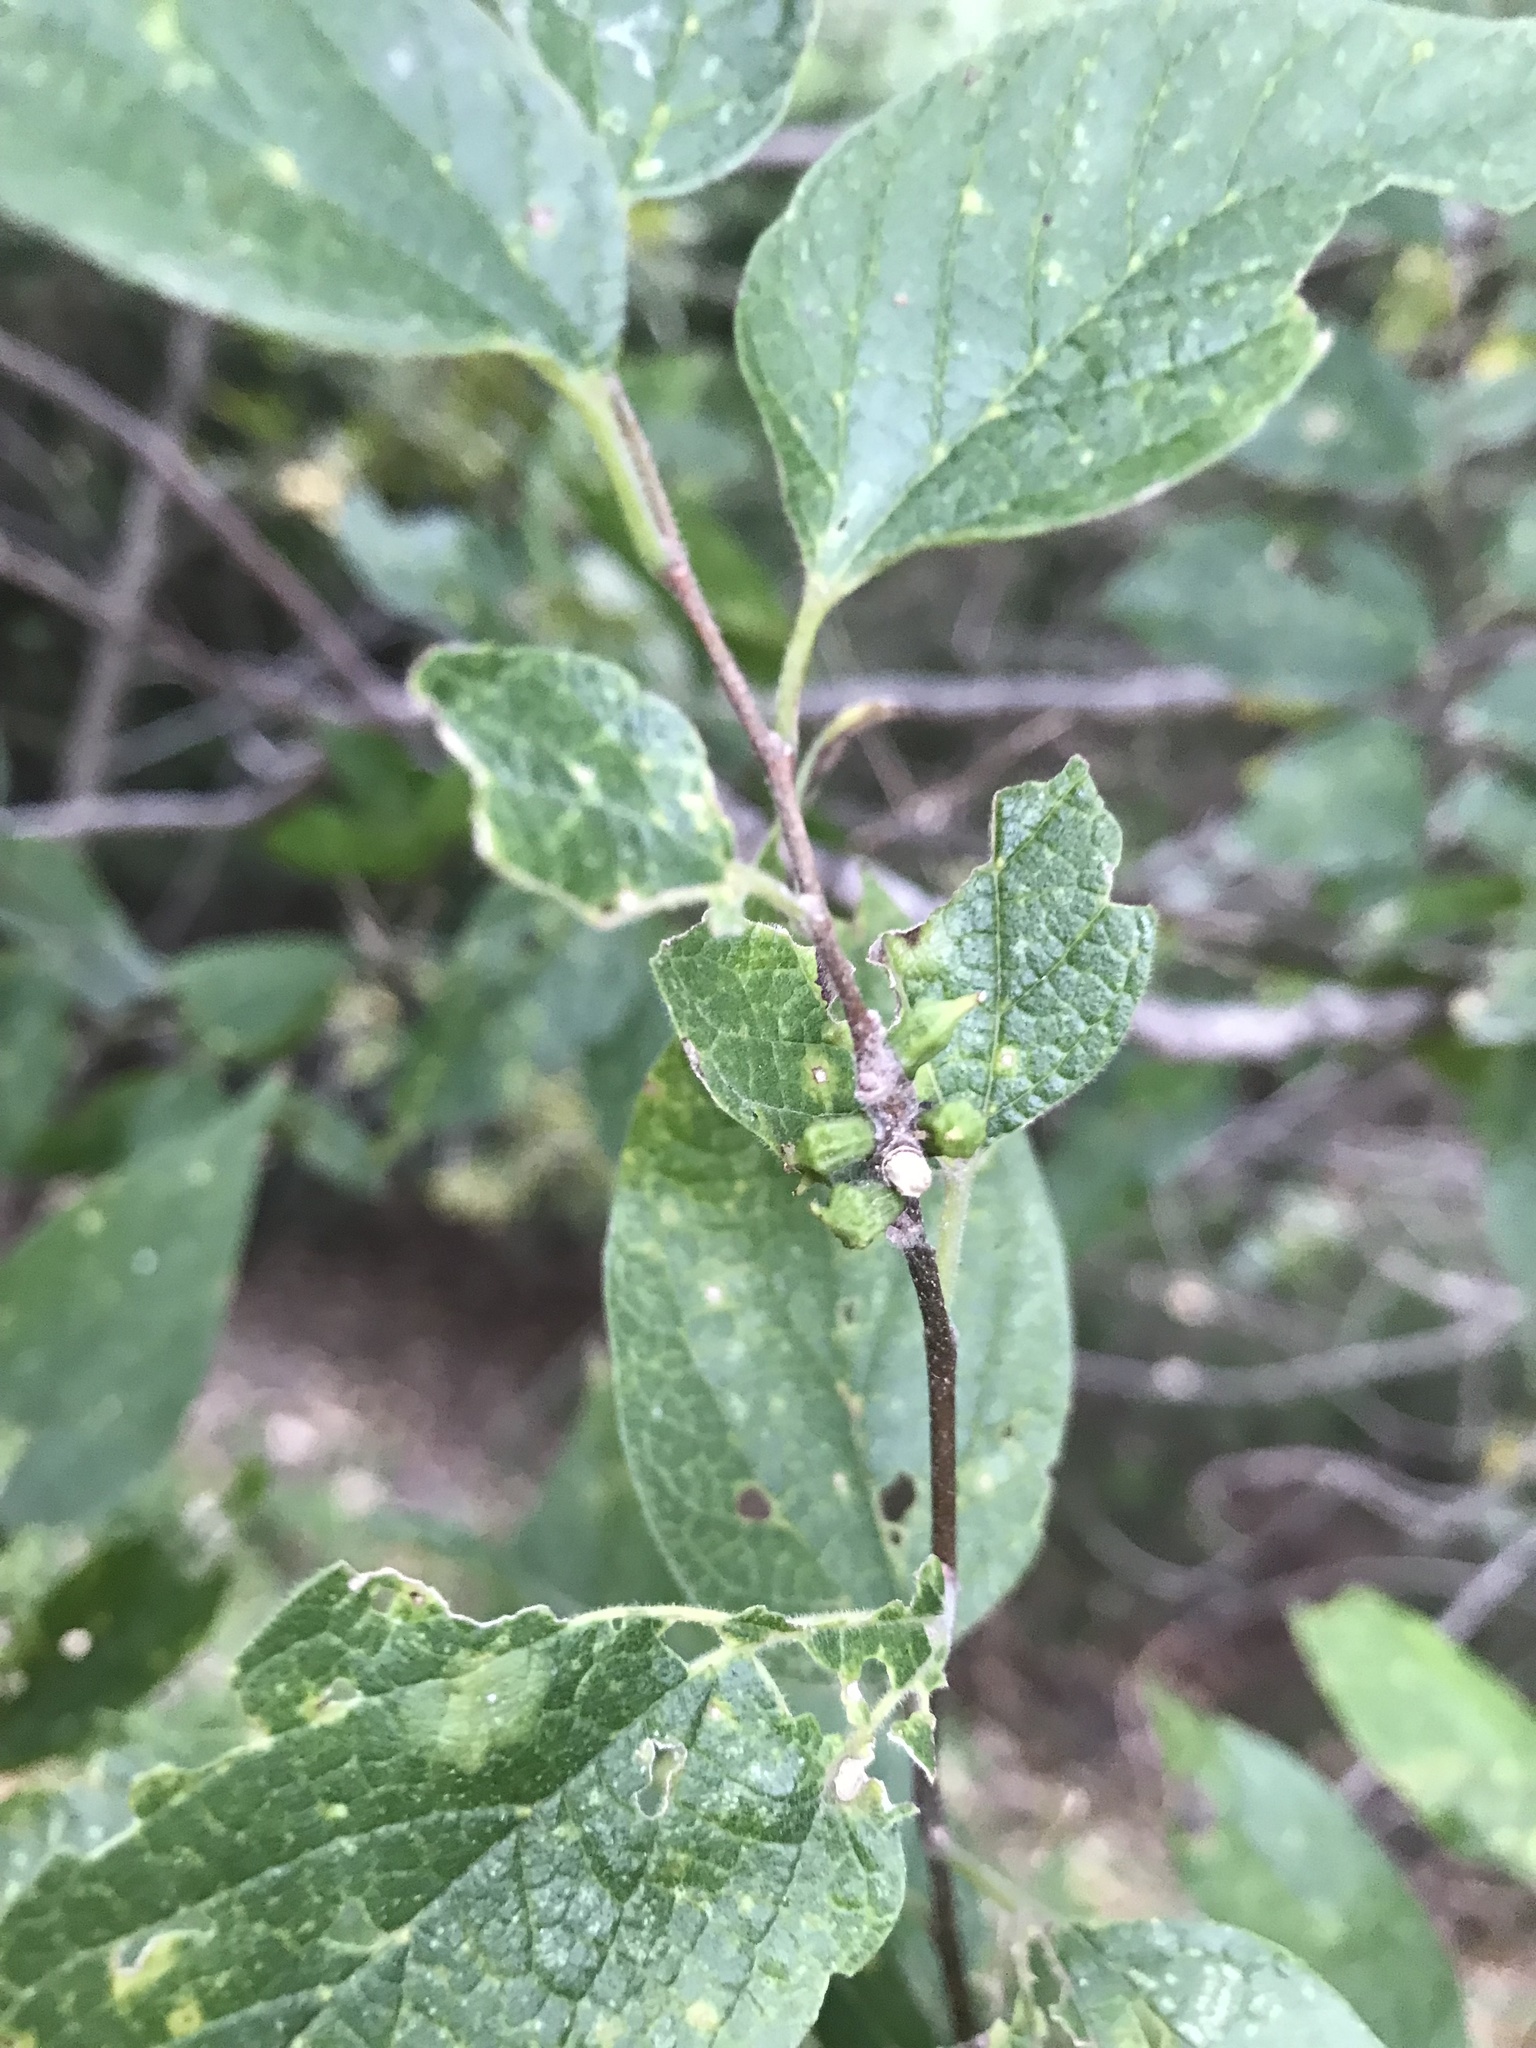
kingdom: Animalia
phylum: Arthropoda
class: Insecta
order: Diptera
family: Cecidomyiidae
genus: Celticecis
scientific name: Celticecis ramicola
